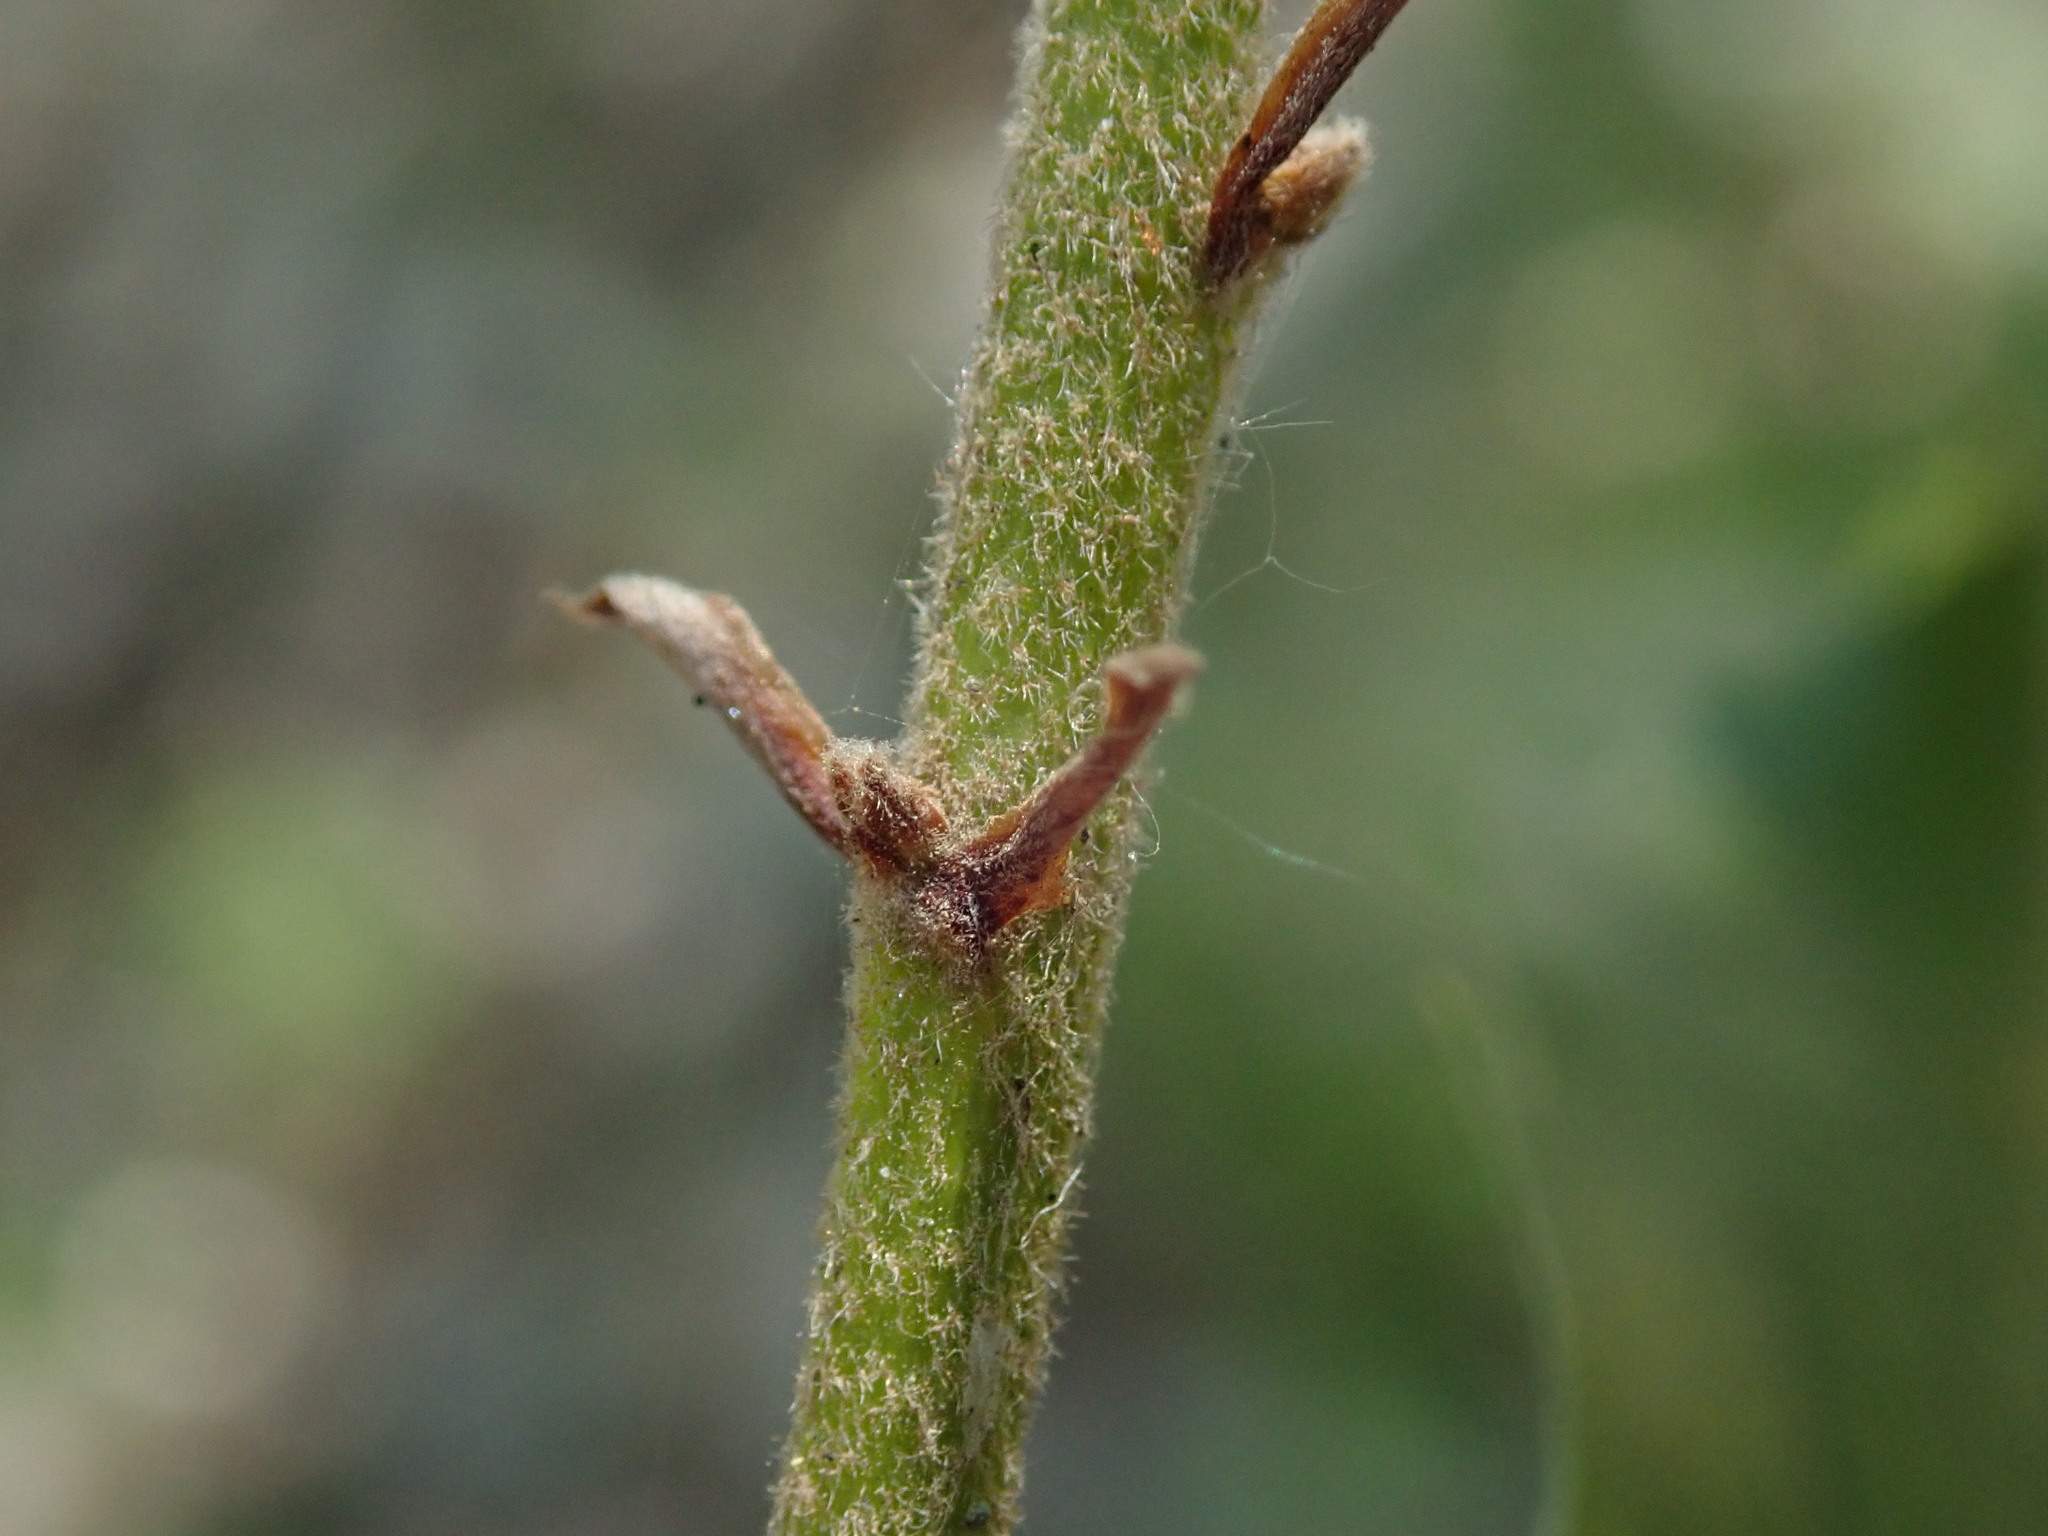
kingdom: Plantae
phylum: Tracheophyta
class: Magnoliopsida
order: Fagales
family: Fagaceae
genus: Quercus
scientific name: Quercus ilex
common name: Evergreen oak
